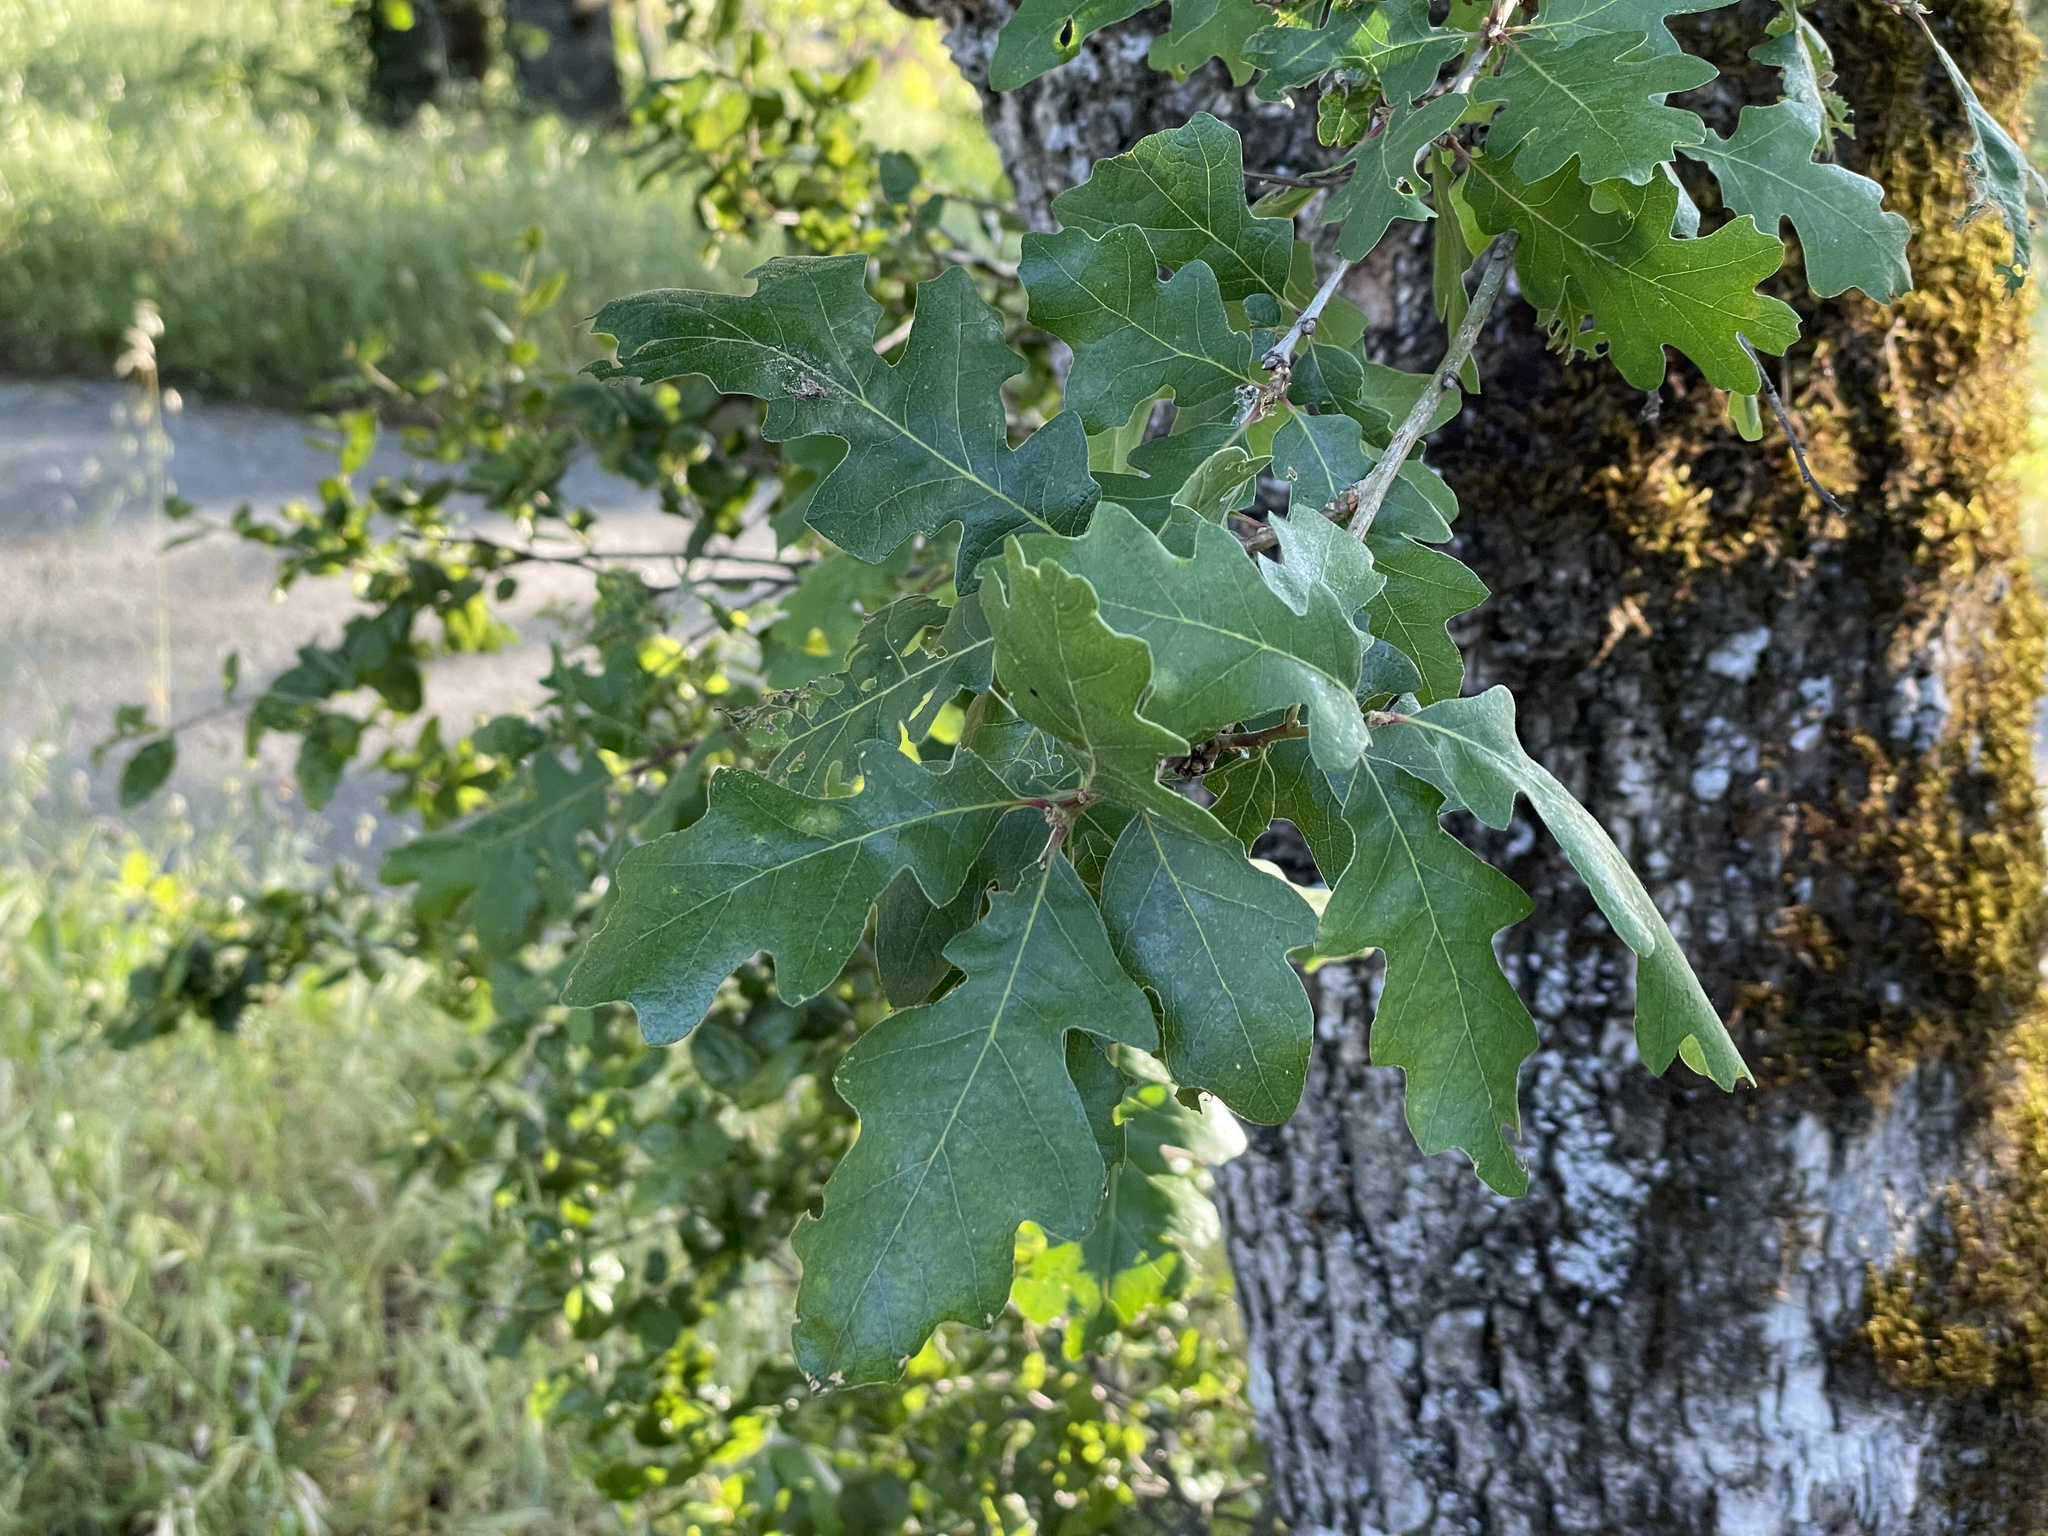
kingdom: Plantae
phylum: Tracheophyta
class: Magnoliopsida
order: Fagales
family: Fagaceae
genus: Quercus
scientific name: Quercus lobata
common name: Valley oak
